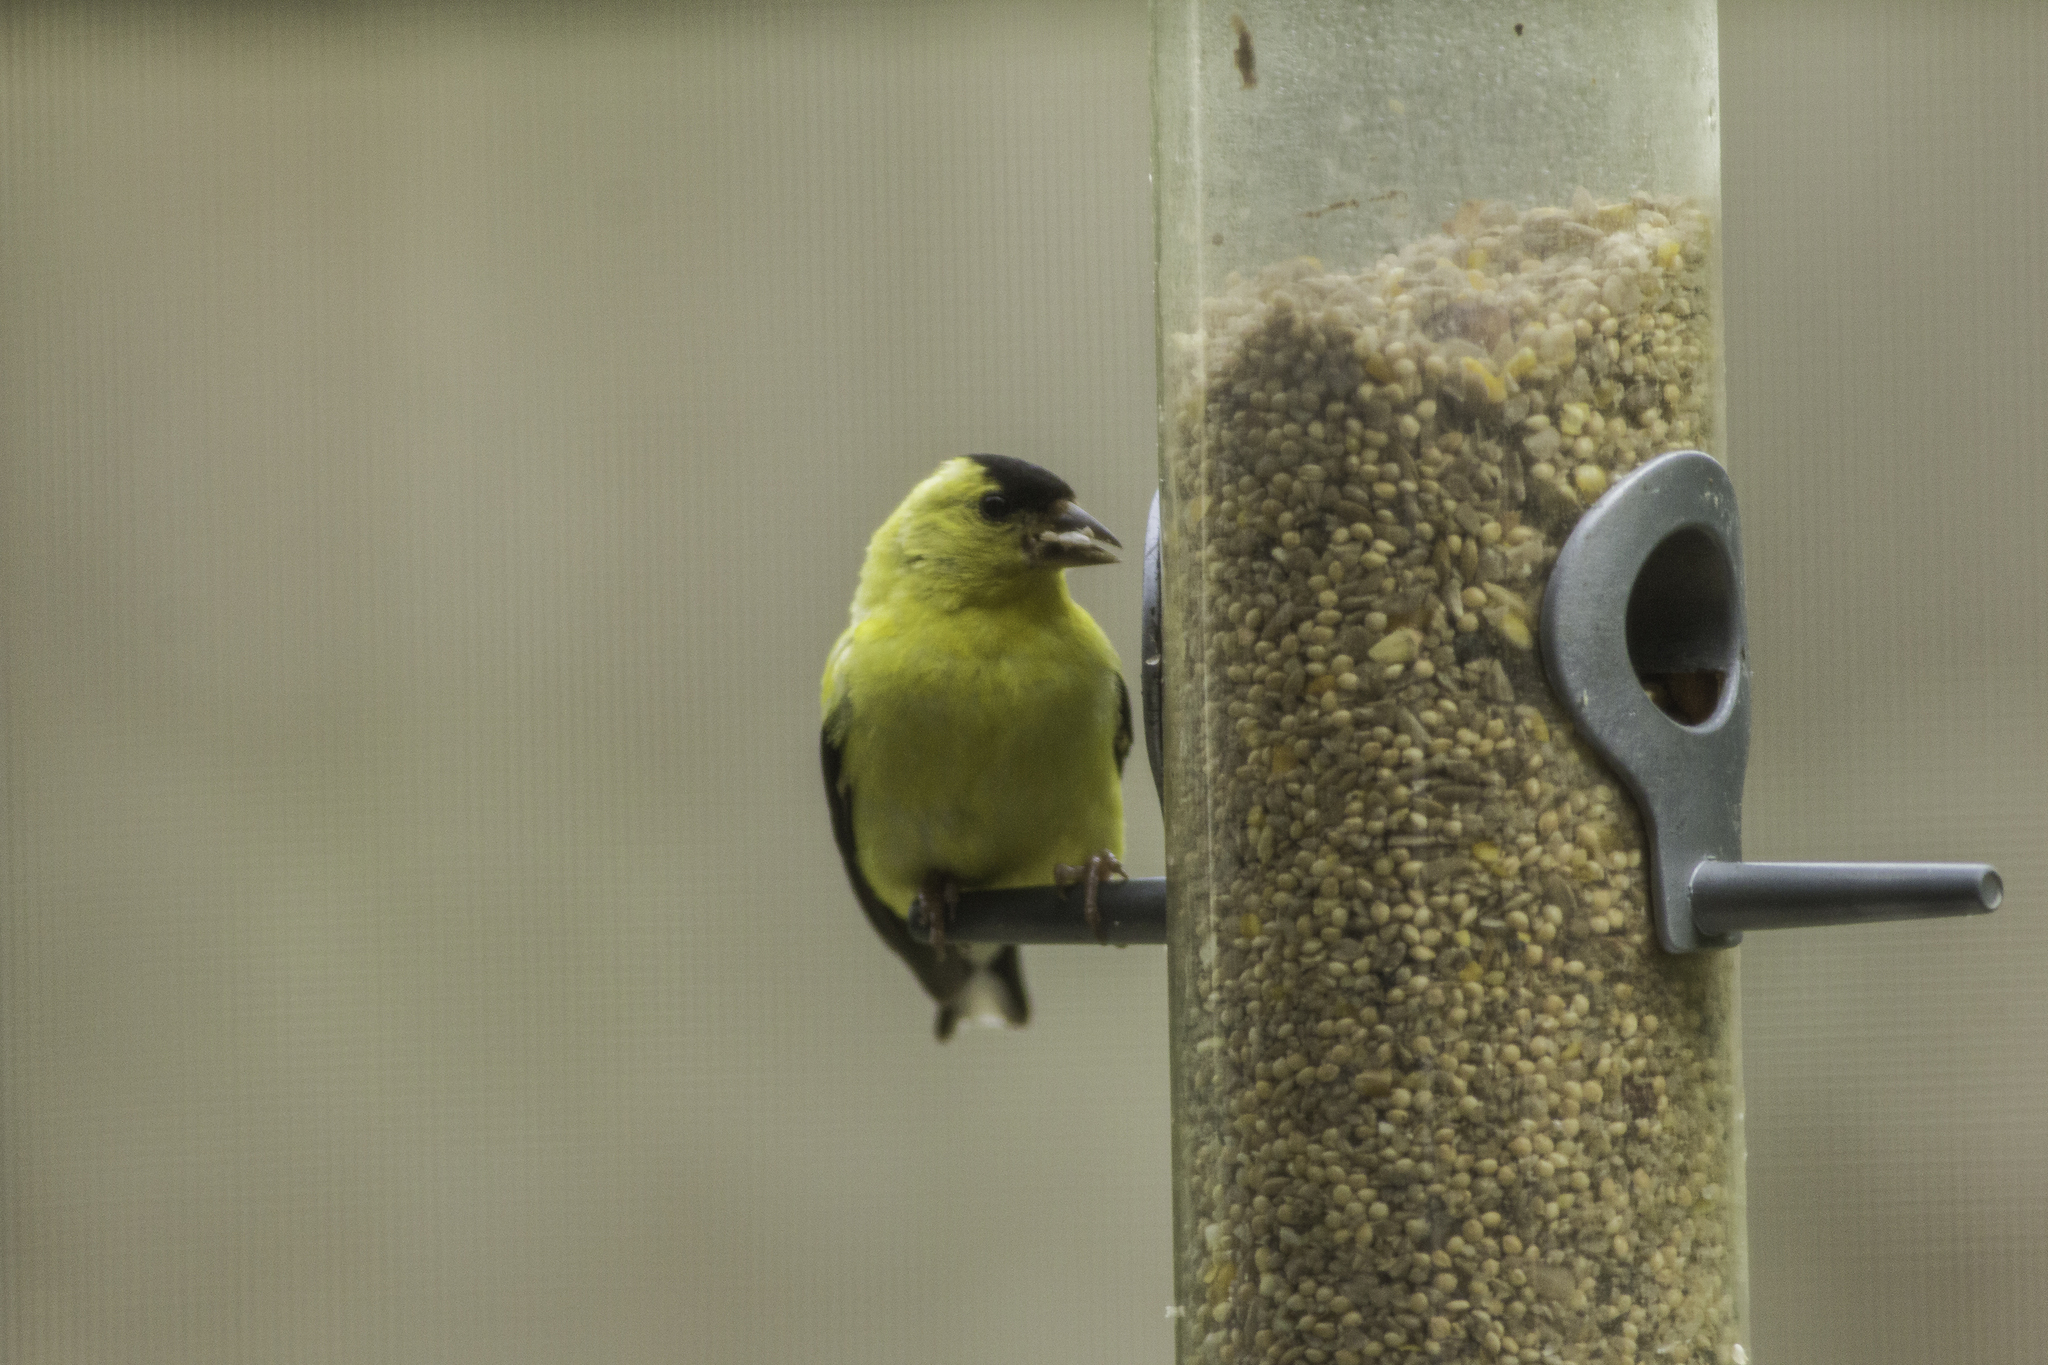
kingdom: Animalia
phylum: Chordata
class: Aves
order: Passeriformes
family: Fringillidae
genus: Spinus
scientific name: Spinus tristis
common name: American goldfinch
